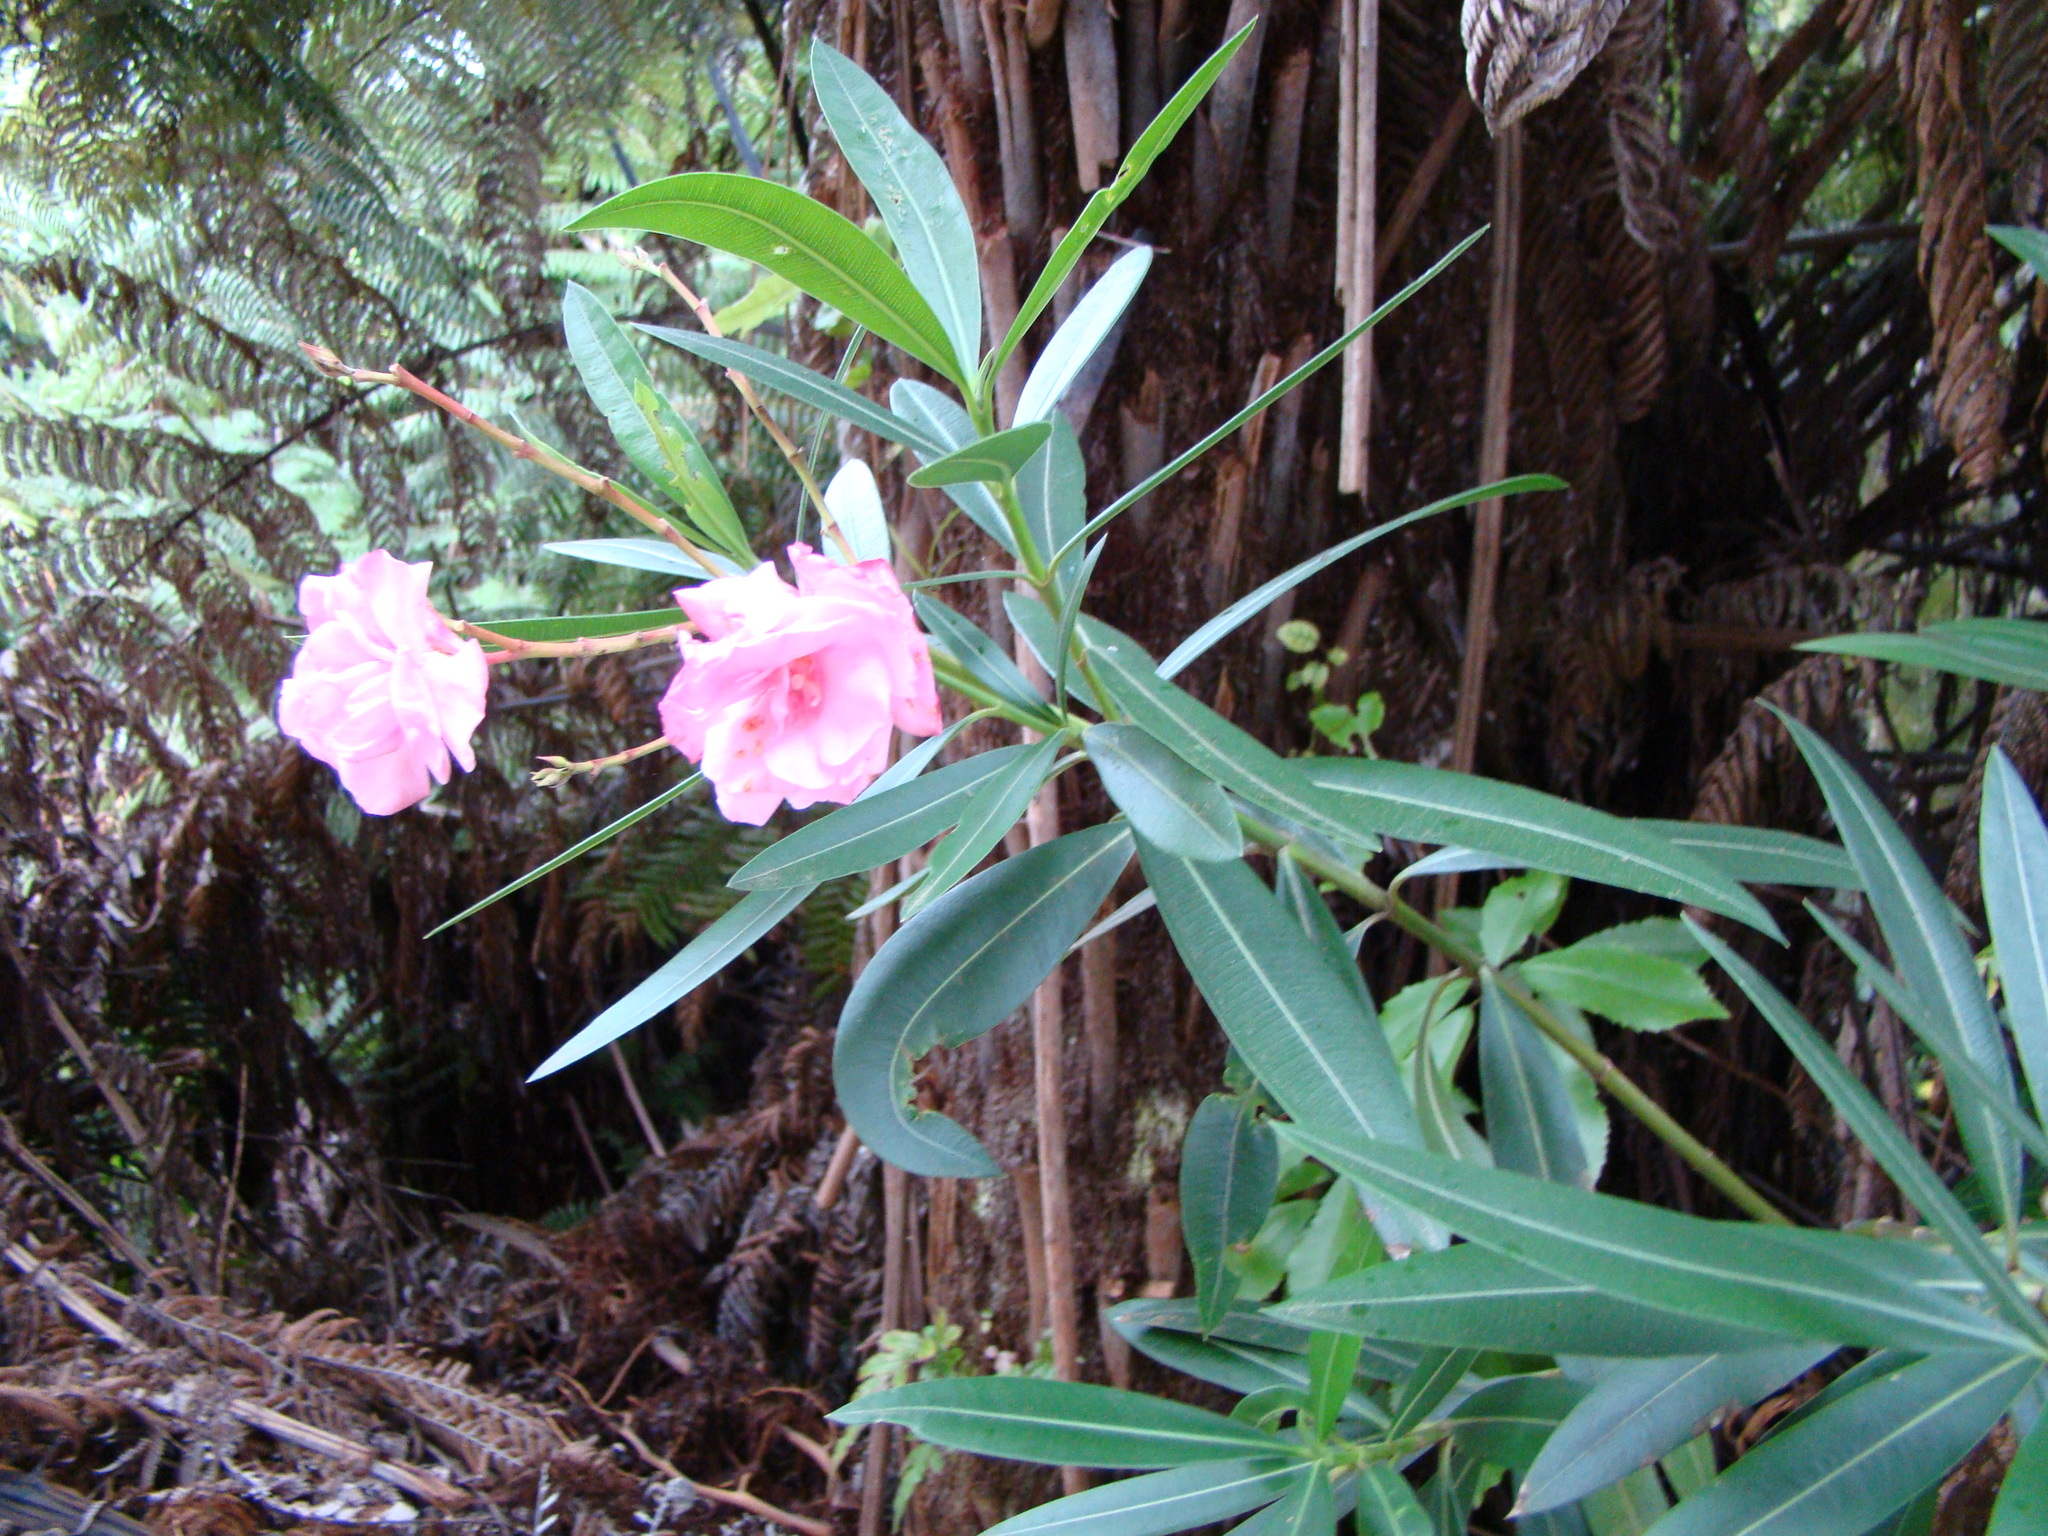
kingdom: Plantae
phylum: Tracheophyta
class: Magnoliopsida
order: Gentianales
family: Apocynaceae
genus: Nerium
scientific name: Nerium oleander
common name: Oleander
